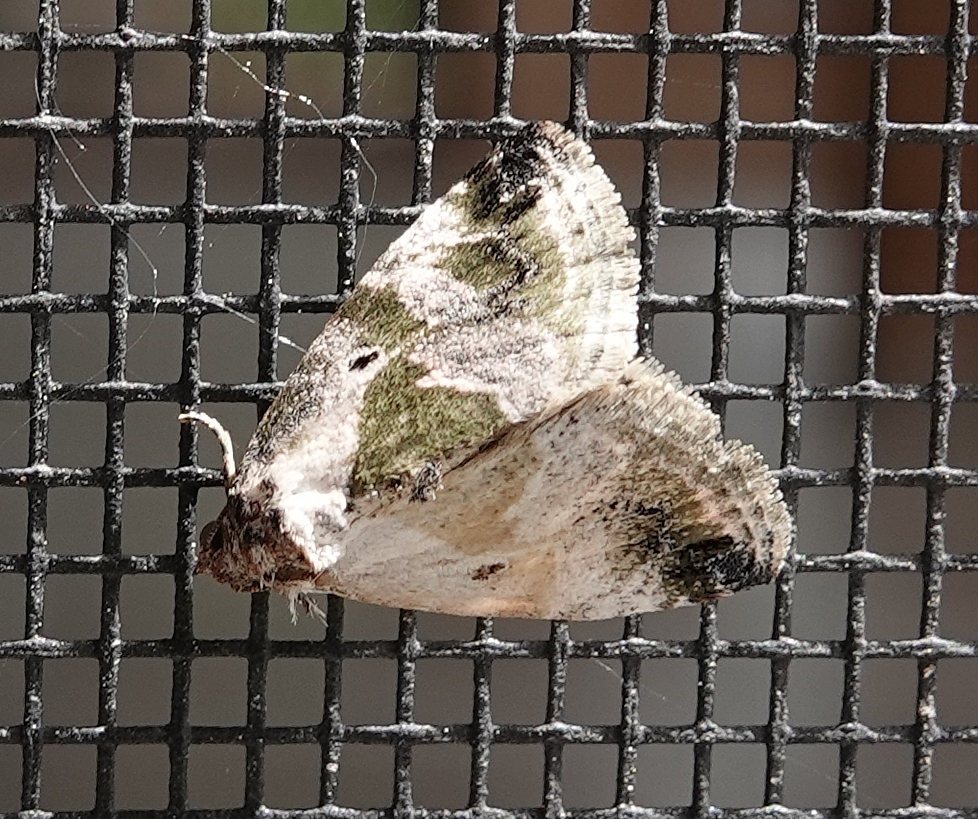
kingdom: Animalia
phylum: Arthropoda
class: Insecta
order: Lepidoptera
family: Noctuidae
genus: Maliattha
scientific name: Maliattha synochitis
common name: Black-dotted glyph
